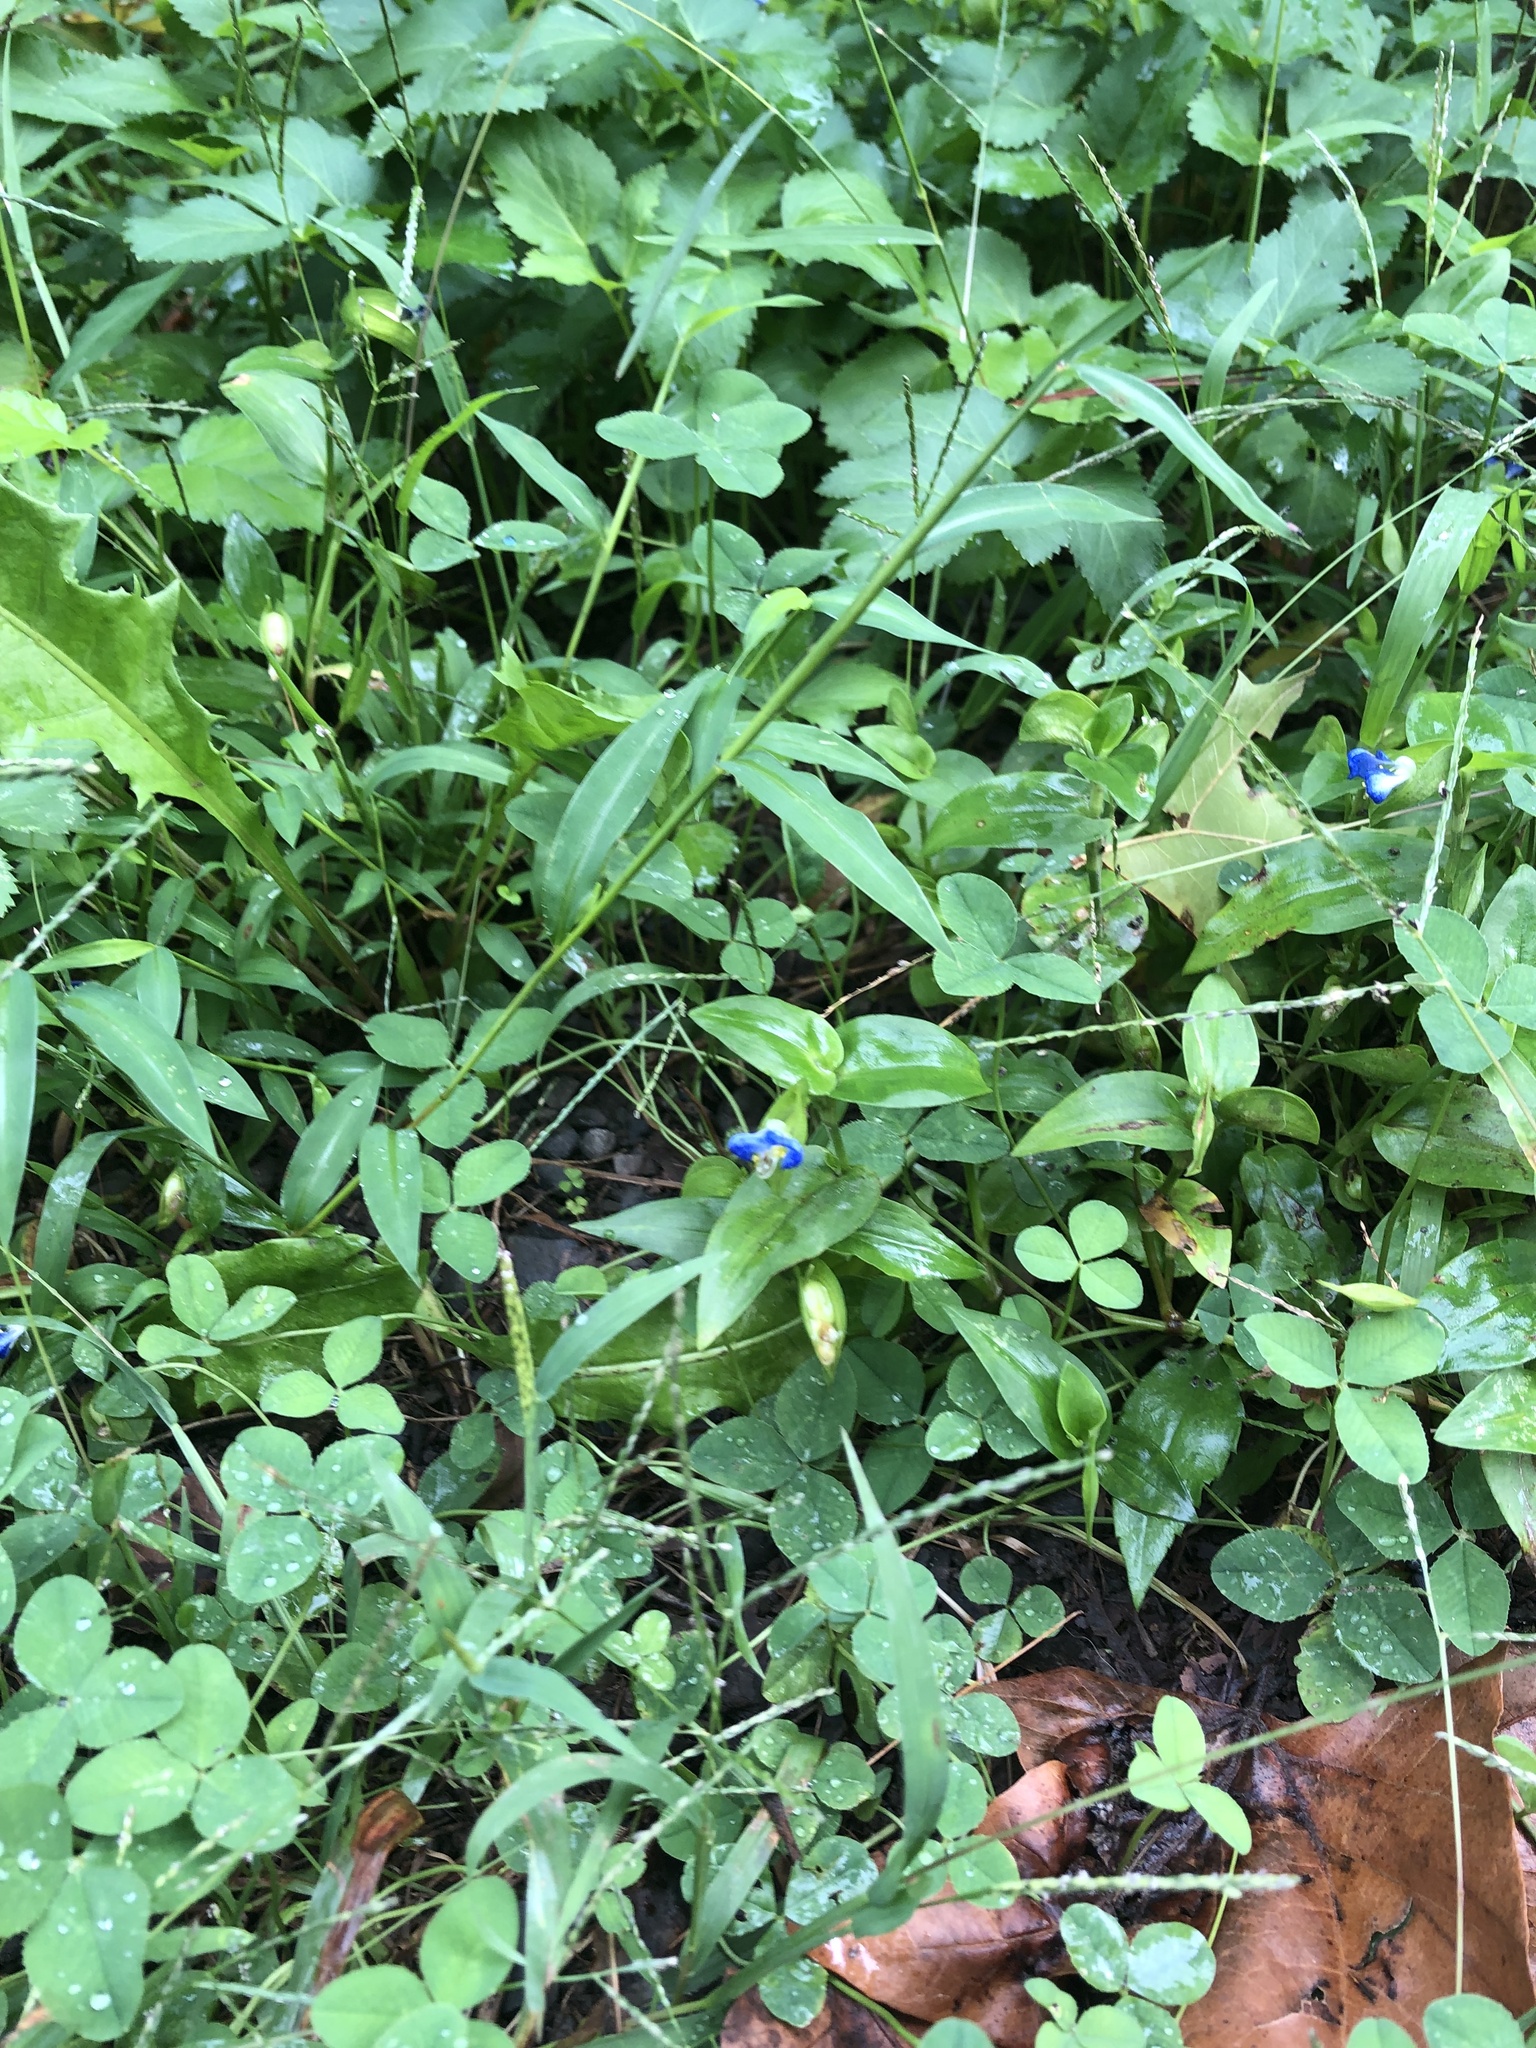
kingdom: Plantae
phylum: Tracheophyta
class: Liliopsida
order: Commelinales
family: Commelinaceae
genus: Commelina
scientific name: Commelina communis
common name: Asiatic dayflower
